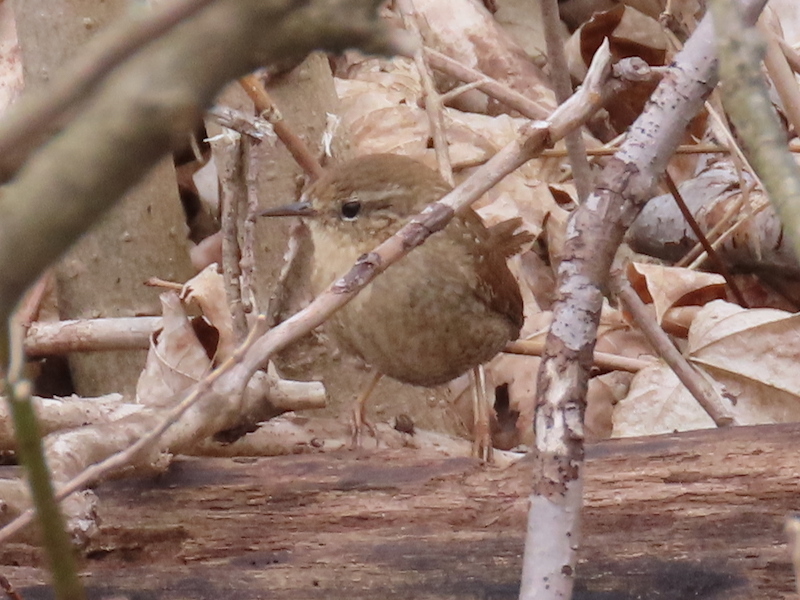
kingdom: Animalia
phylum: Chordata
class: Aves
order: Passeriformes
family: Troglodytidae
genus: Troglodytes
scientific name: Troglodytes hiemalis
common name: Winter wren
